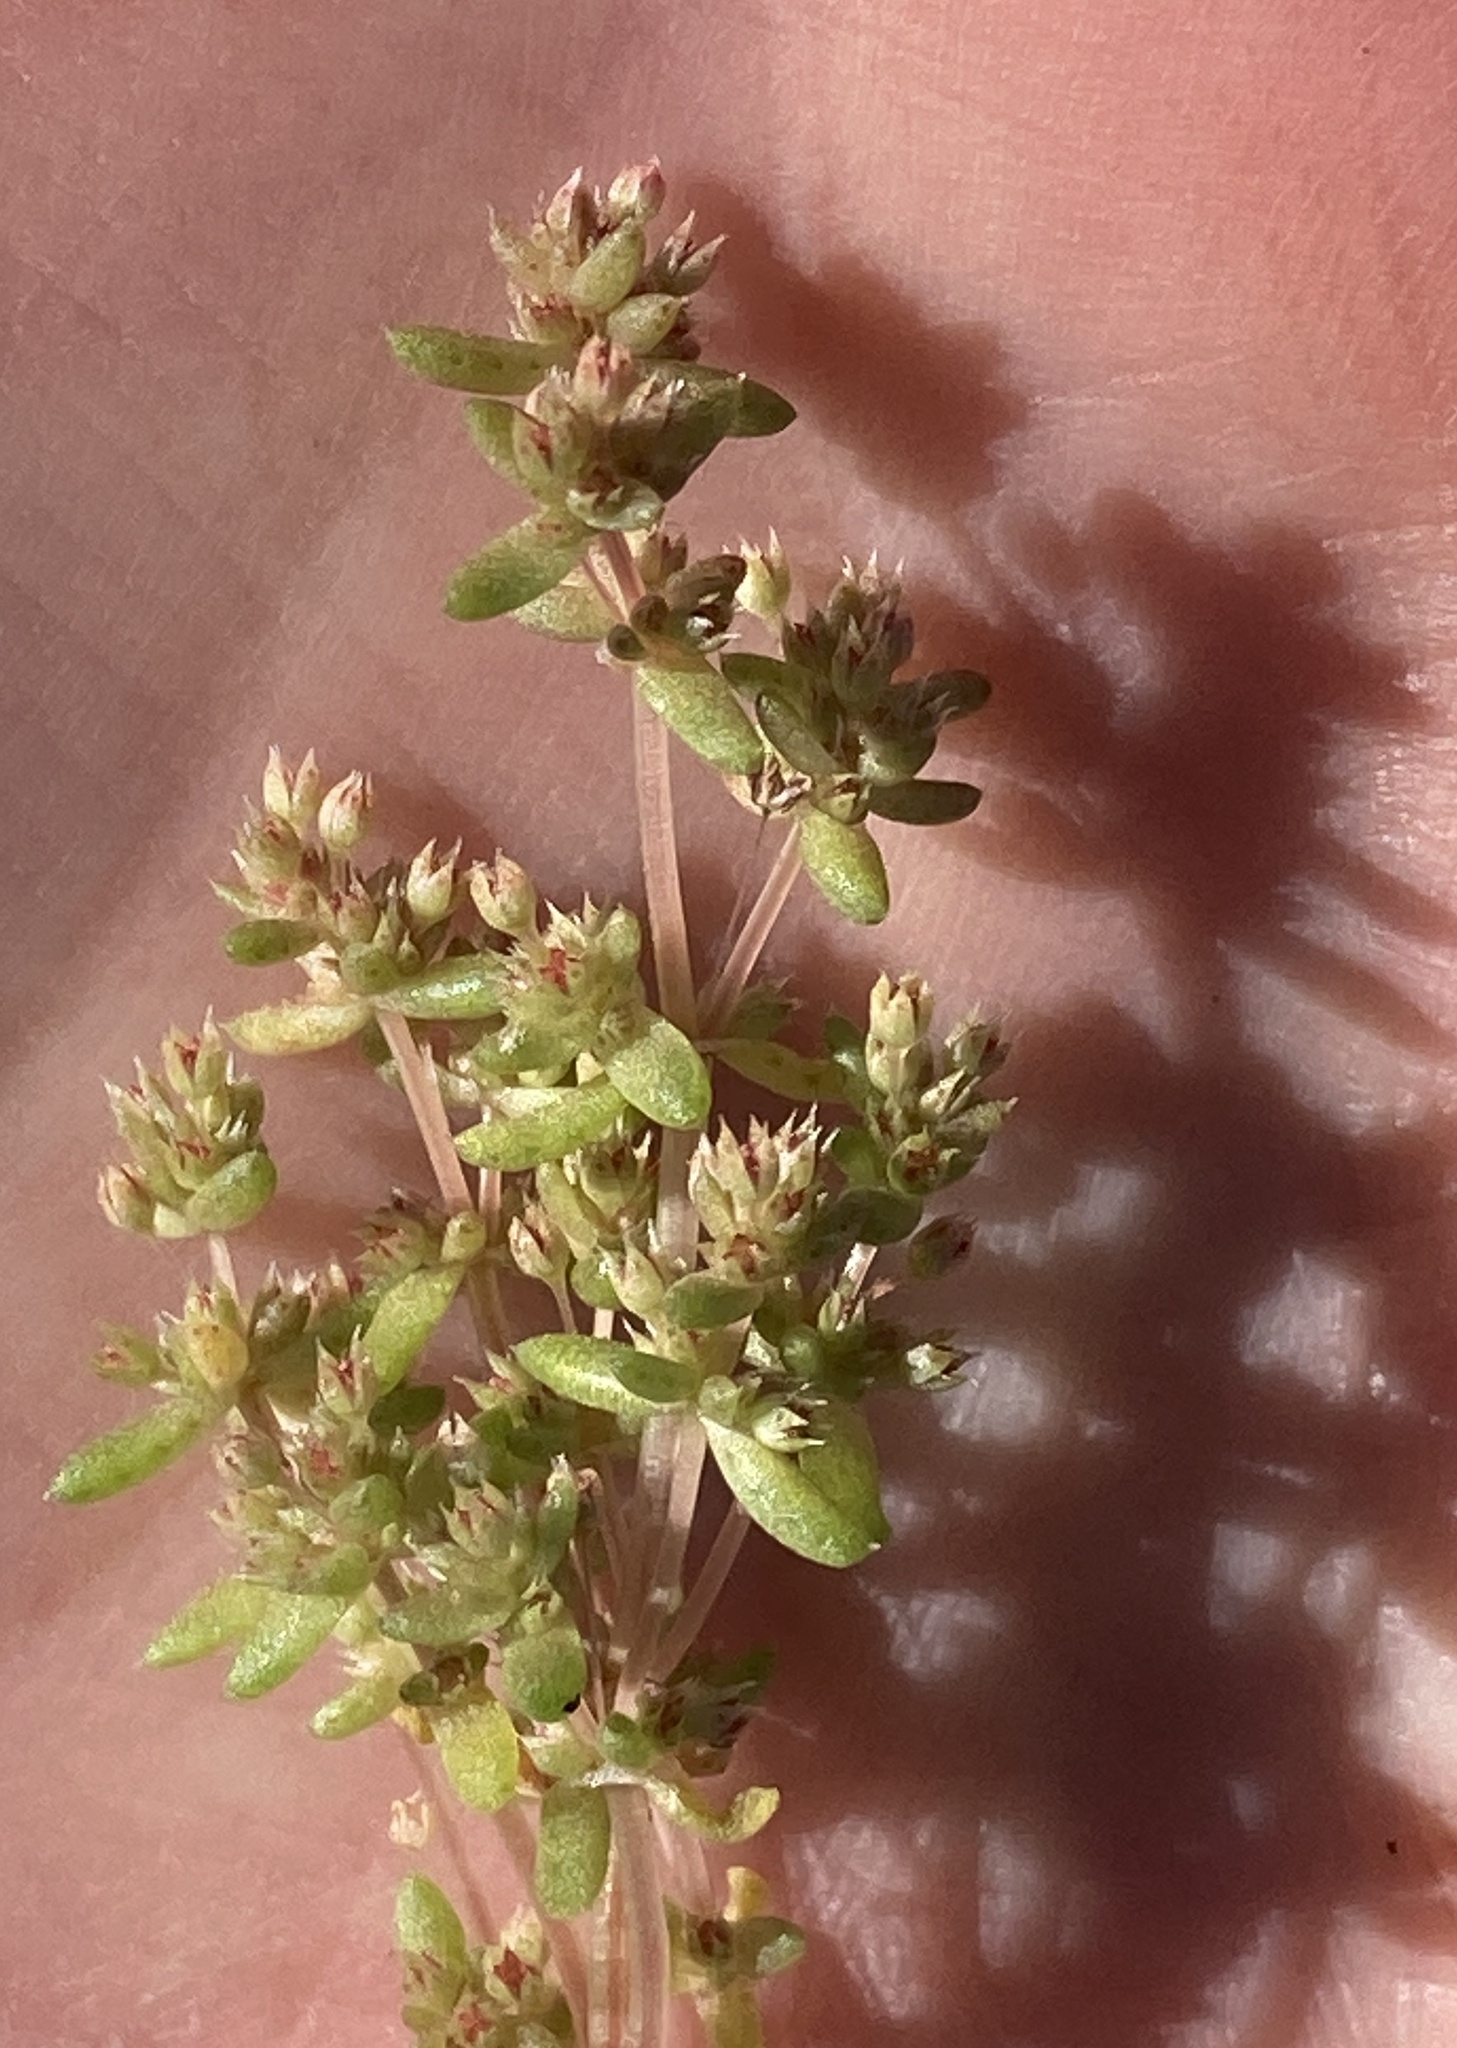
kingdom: Plantae
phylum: Tracheophyta
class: Magnoliopsida
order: Saxifragales
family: Crassulaceae
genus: Crassula
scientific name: Crassula connata
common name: Erect pygmyweed
